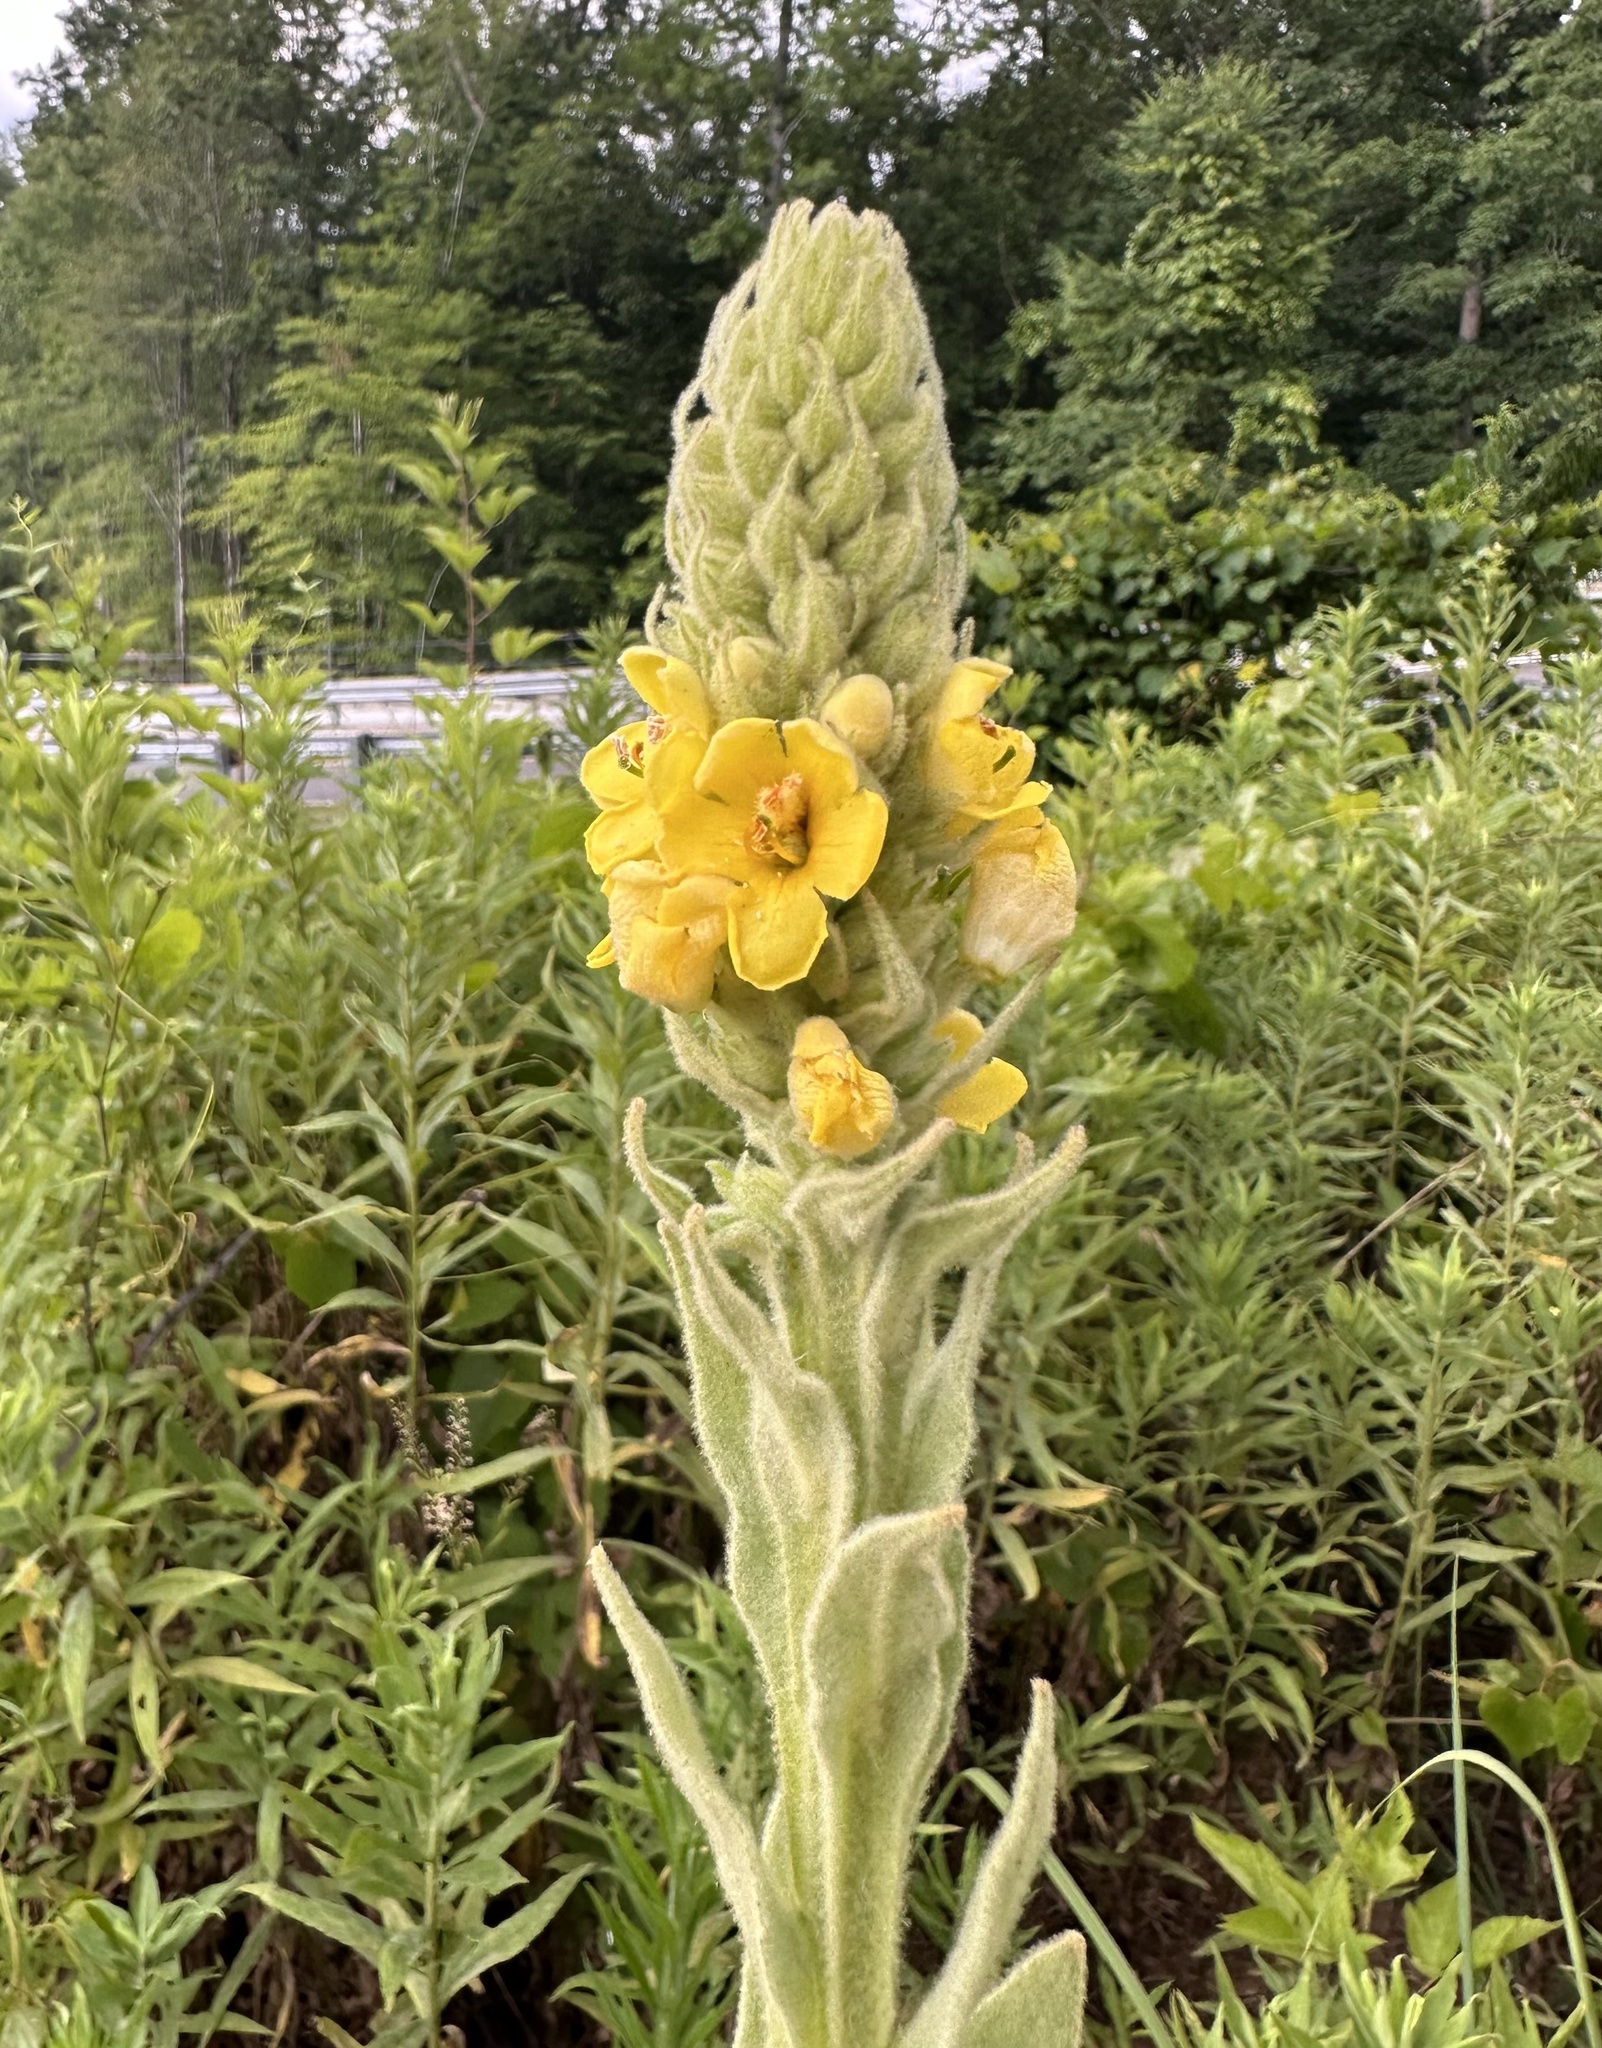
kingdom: Plantae
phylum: Tracheophyta
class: Magnoliopsida
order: Lamiales
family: Scrophulariaceae
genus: Verbascum
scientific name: Verbascum thapsus
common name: Common mullein
